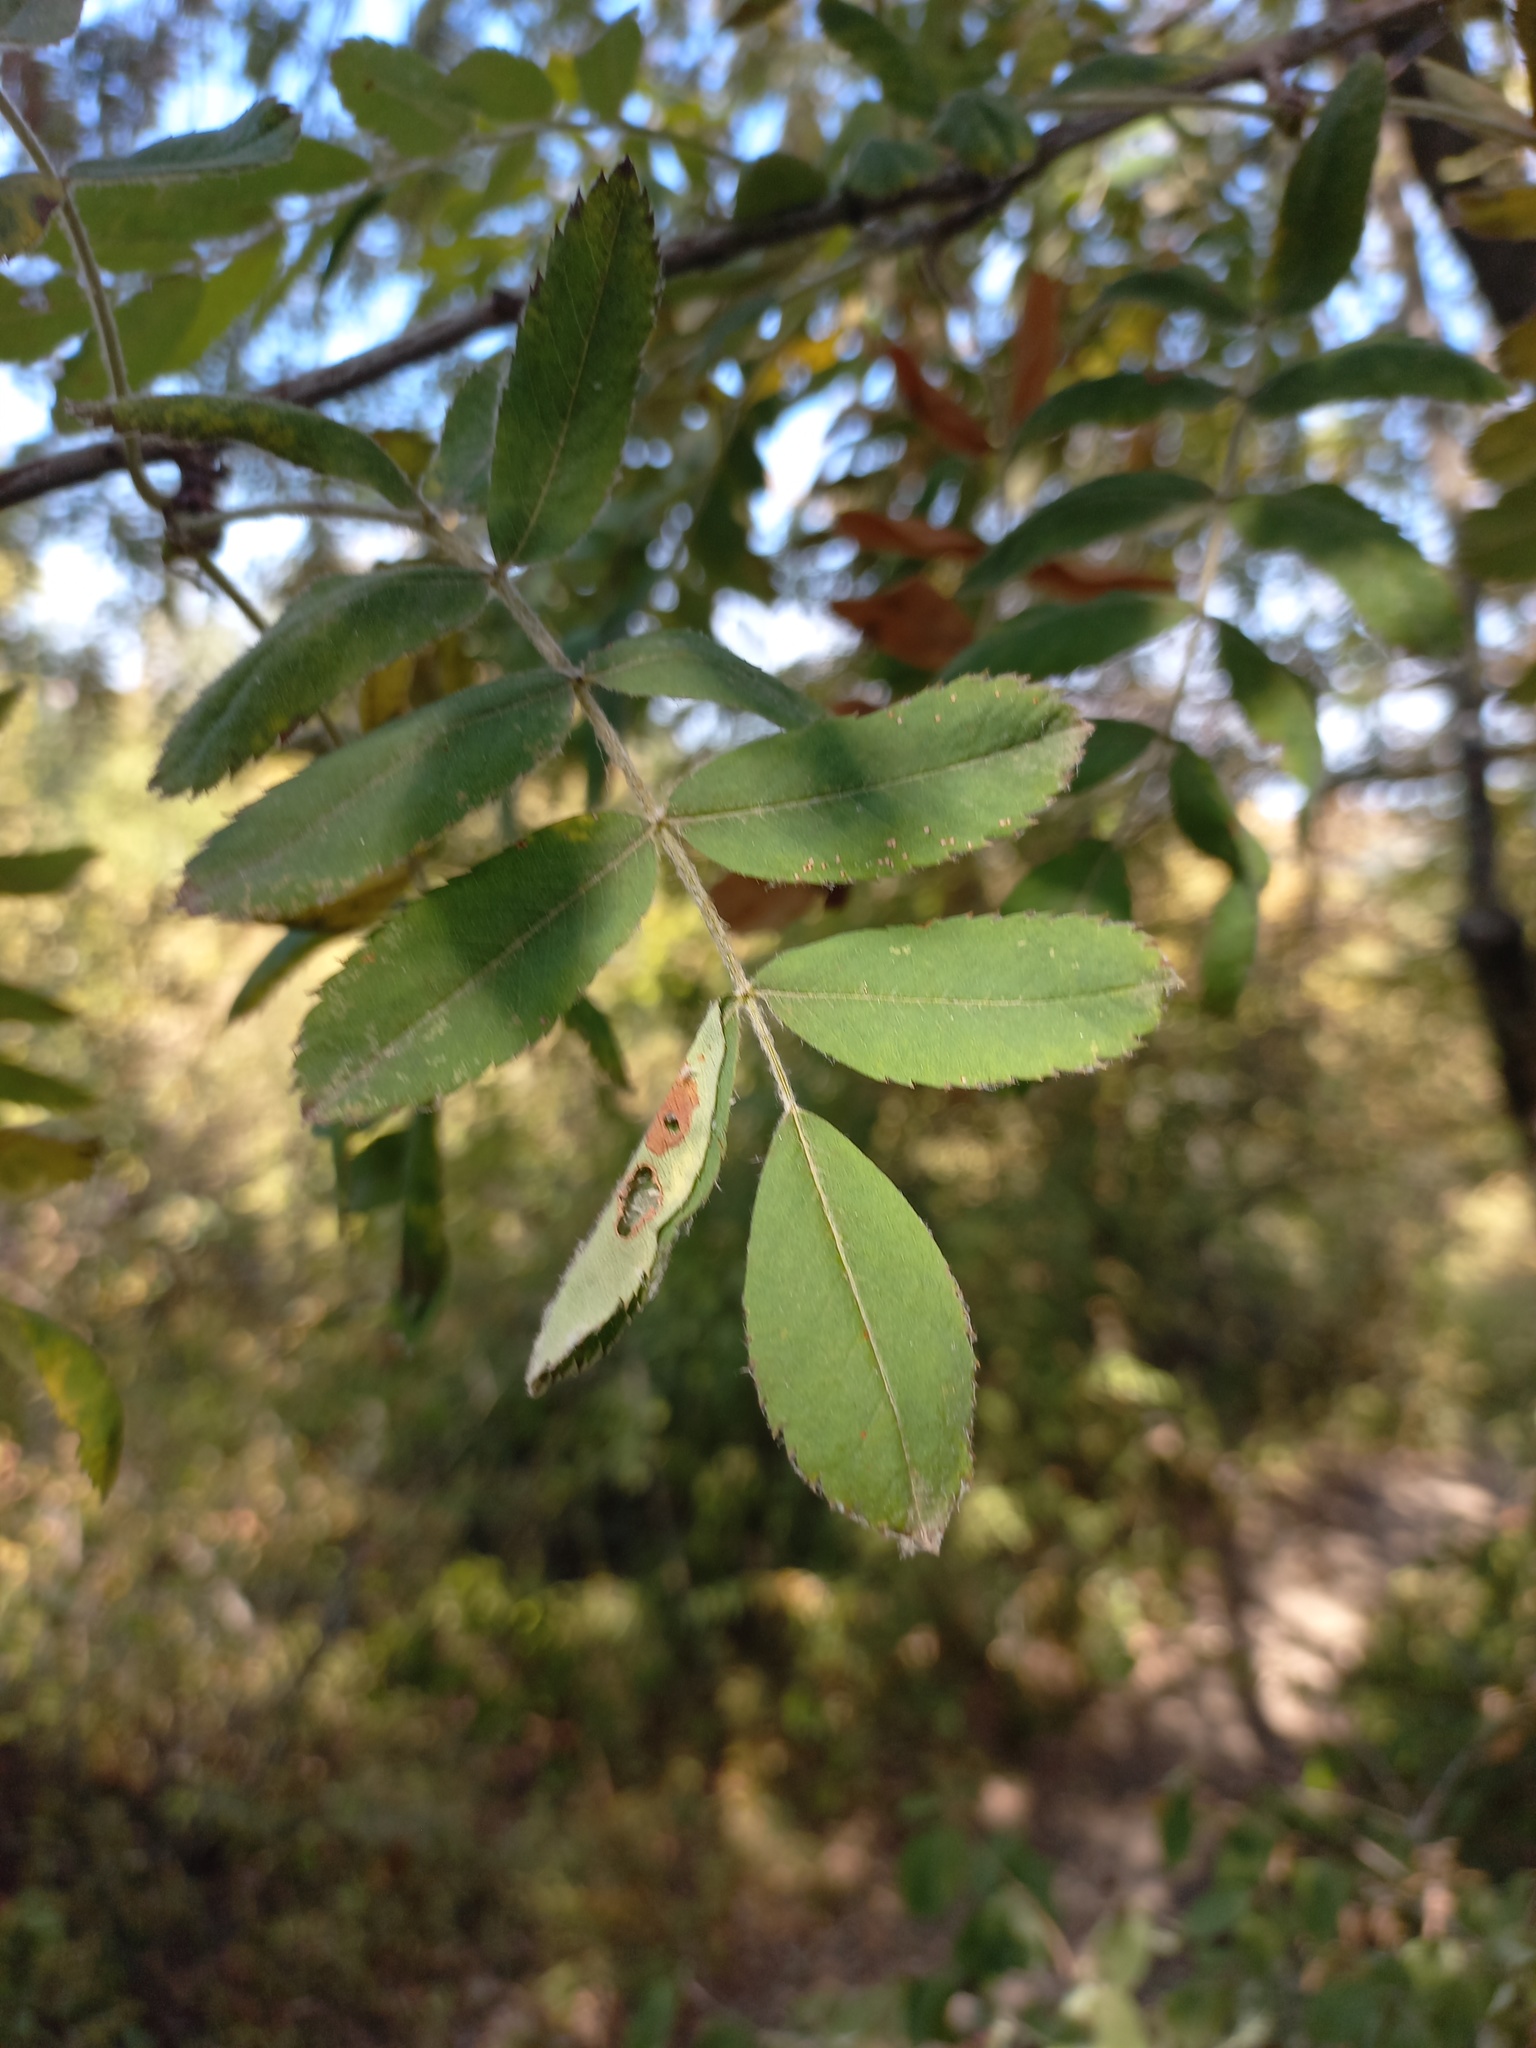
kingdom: Plantae
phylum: Tracheophyta
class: Magnoliopsida
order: Rosales
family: Rosaceae
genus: Cormus
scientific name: Cormus domestica
